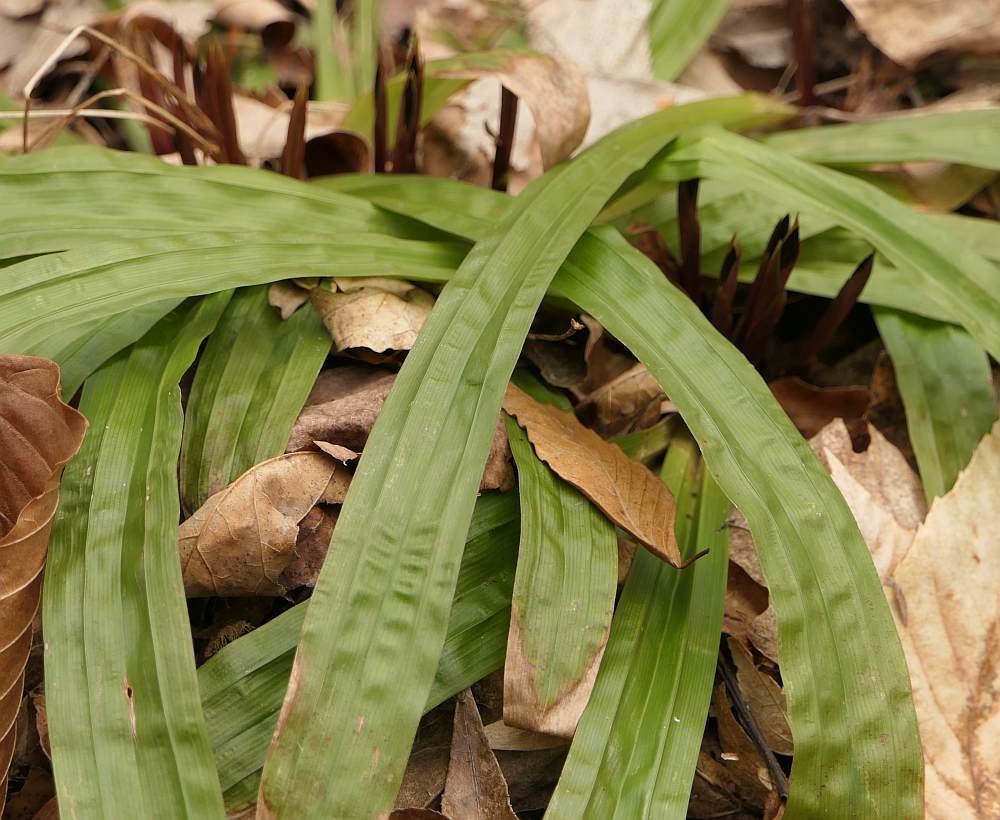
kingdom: Plantae
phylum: Tracheophyta
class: Liliopsida
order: Poales
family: Cyperaceae
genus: Carex
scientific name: Carex plantaginea
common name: Plantain-leaved sedge
